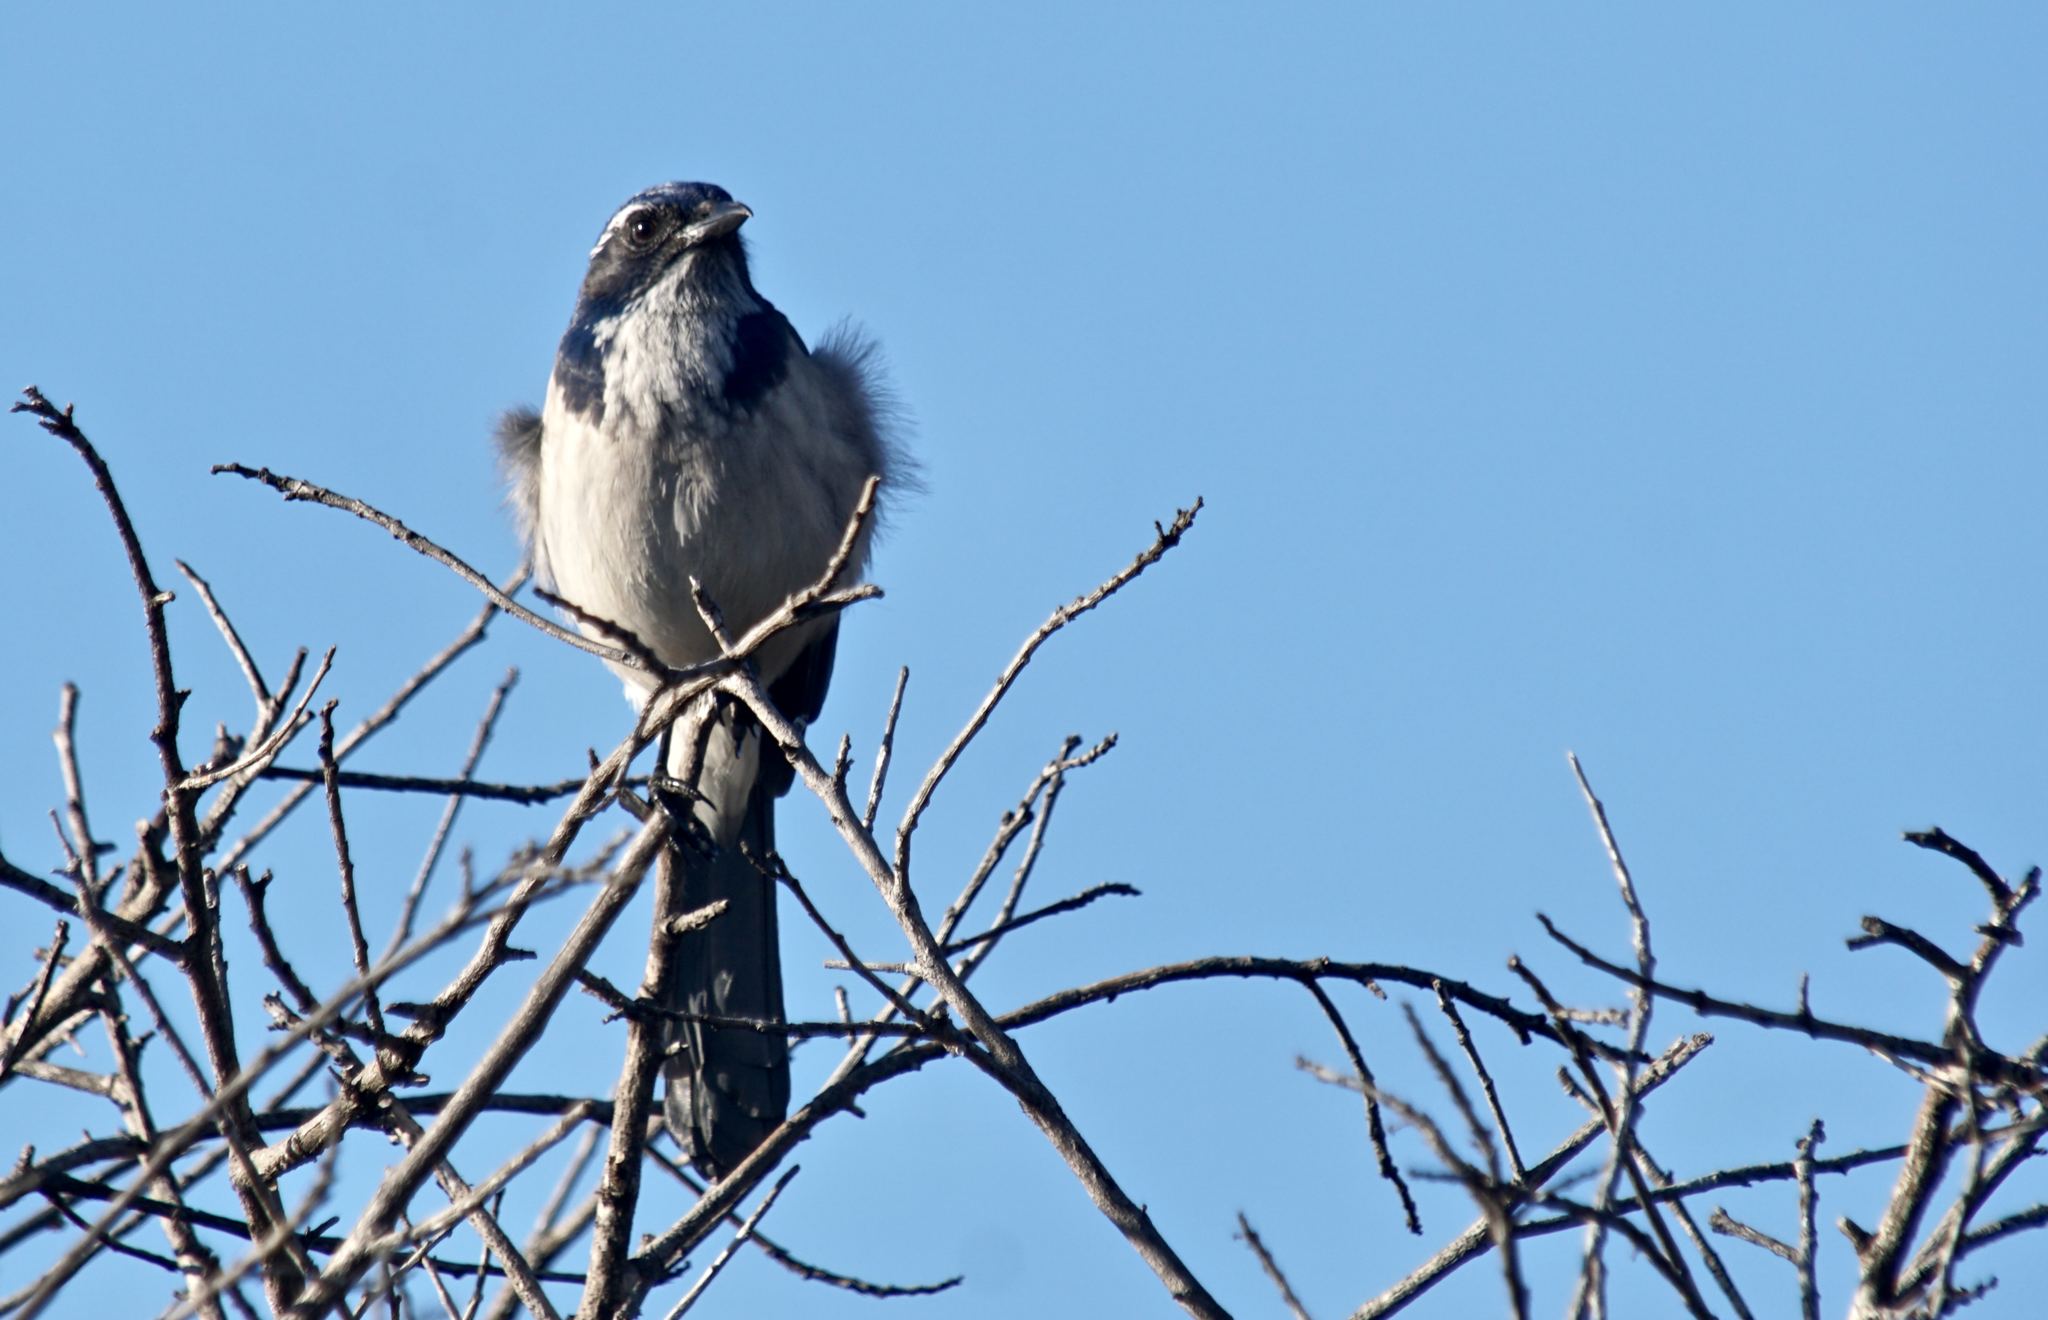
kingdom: Animalia
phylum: Chordata
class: Aves
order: Passeriformes
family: Corvidae
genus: Aphelocoma
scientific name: Aphelocoma californica
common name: California scrub-jay
